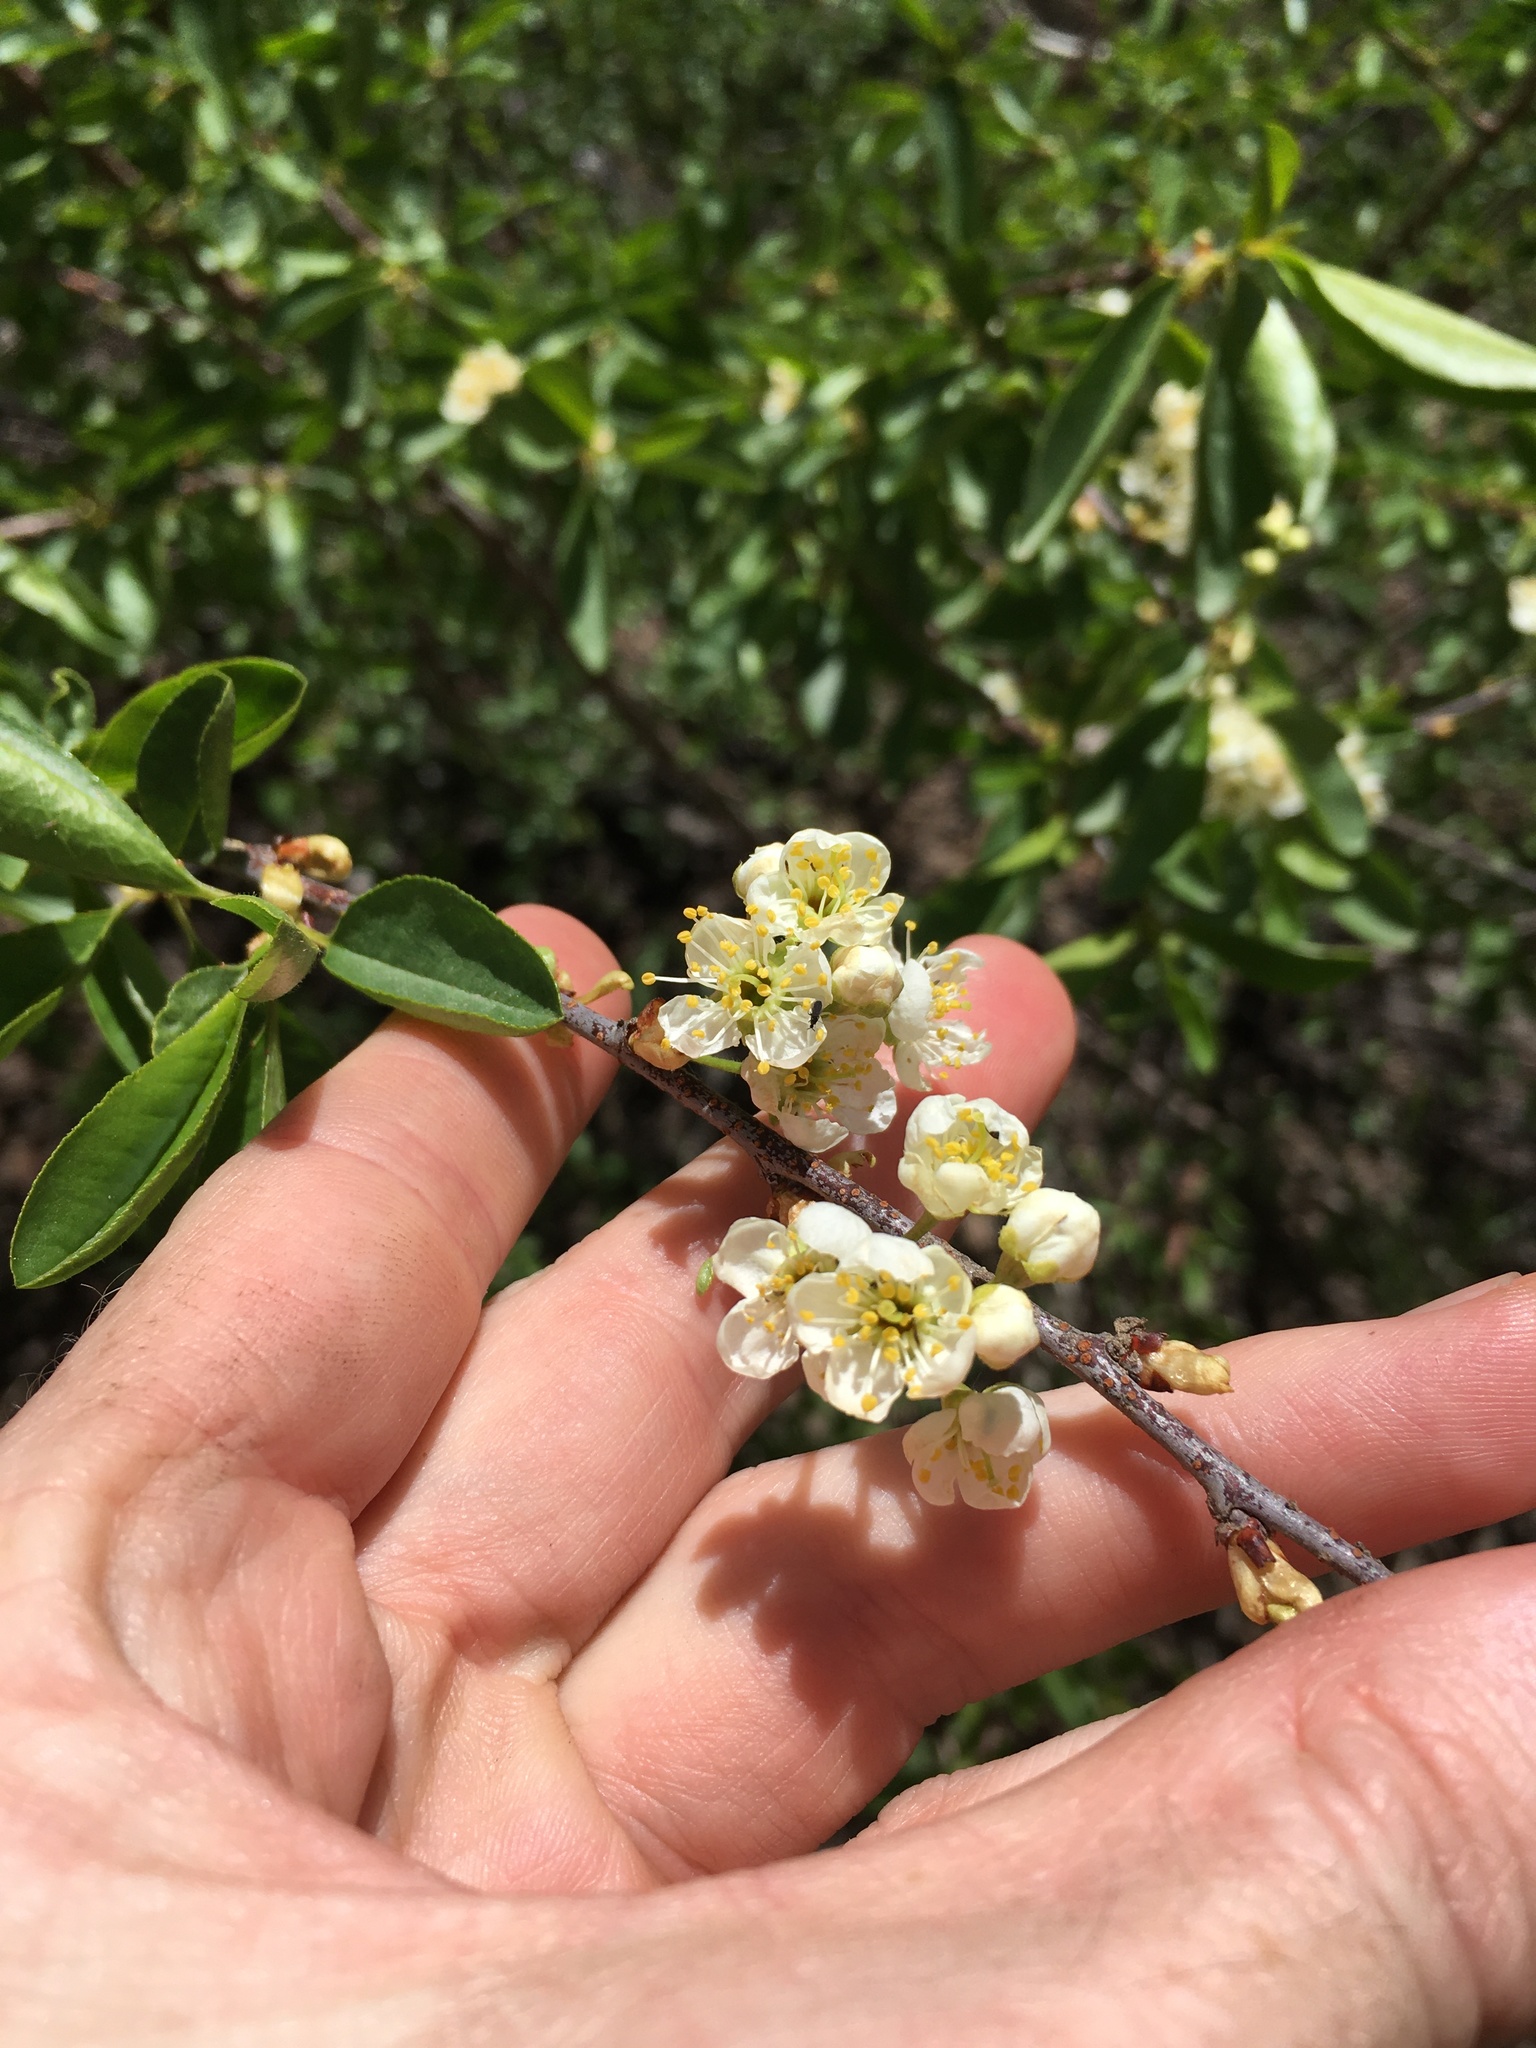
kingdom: Plantae
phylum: Tracheophyta
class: Magnoliopsida
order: Rosales
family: Rosaceae
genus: Prunus
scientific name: Prunus emarginata
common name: Bitter cherry
